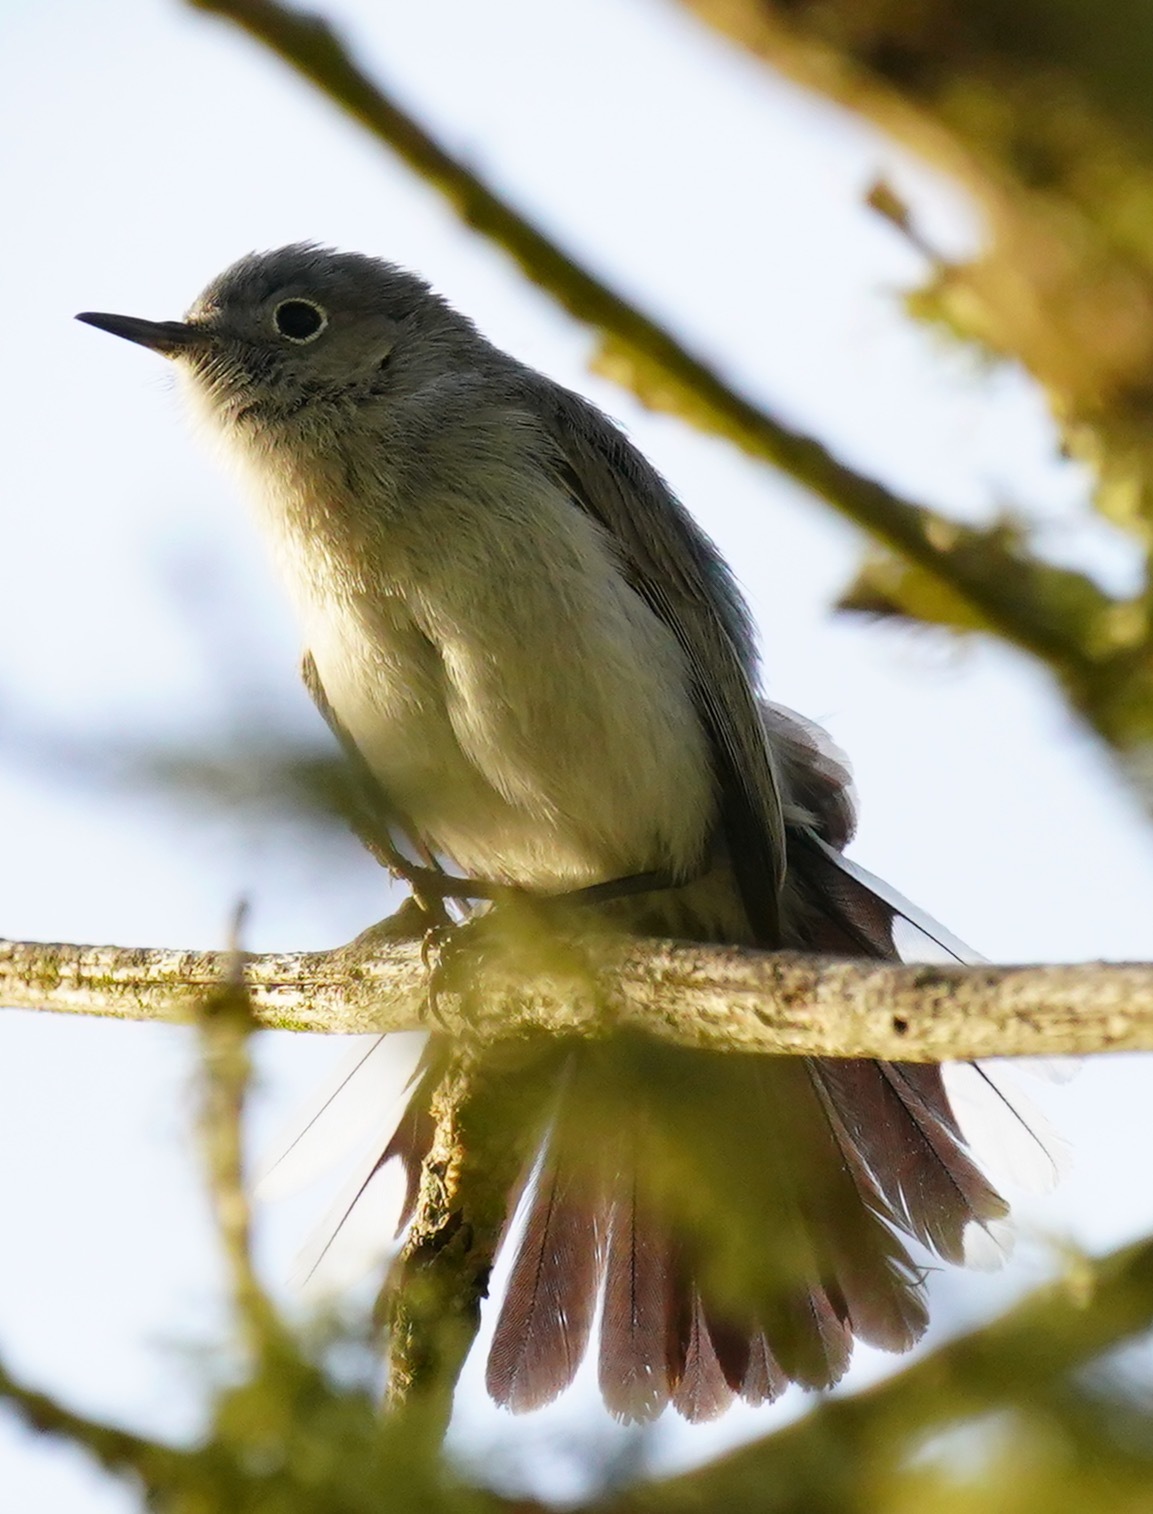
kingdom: Animalia
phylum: Chordata
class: Aves
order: Passeriformes
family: Polioptilidae
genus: Polioptila
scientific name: Polioptila caerulea
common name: Blue-gray gnatcatcher
